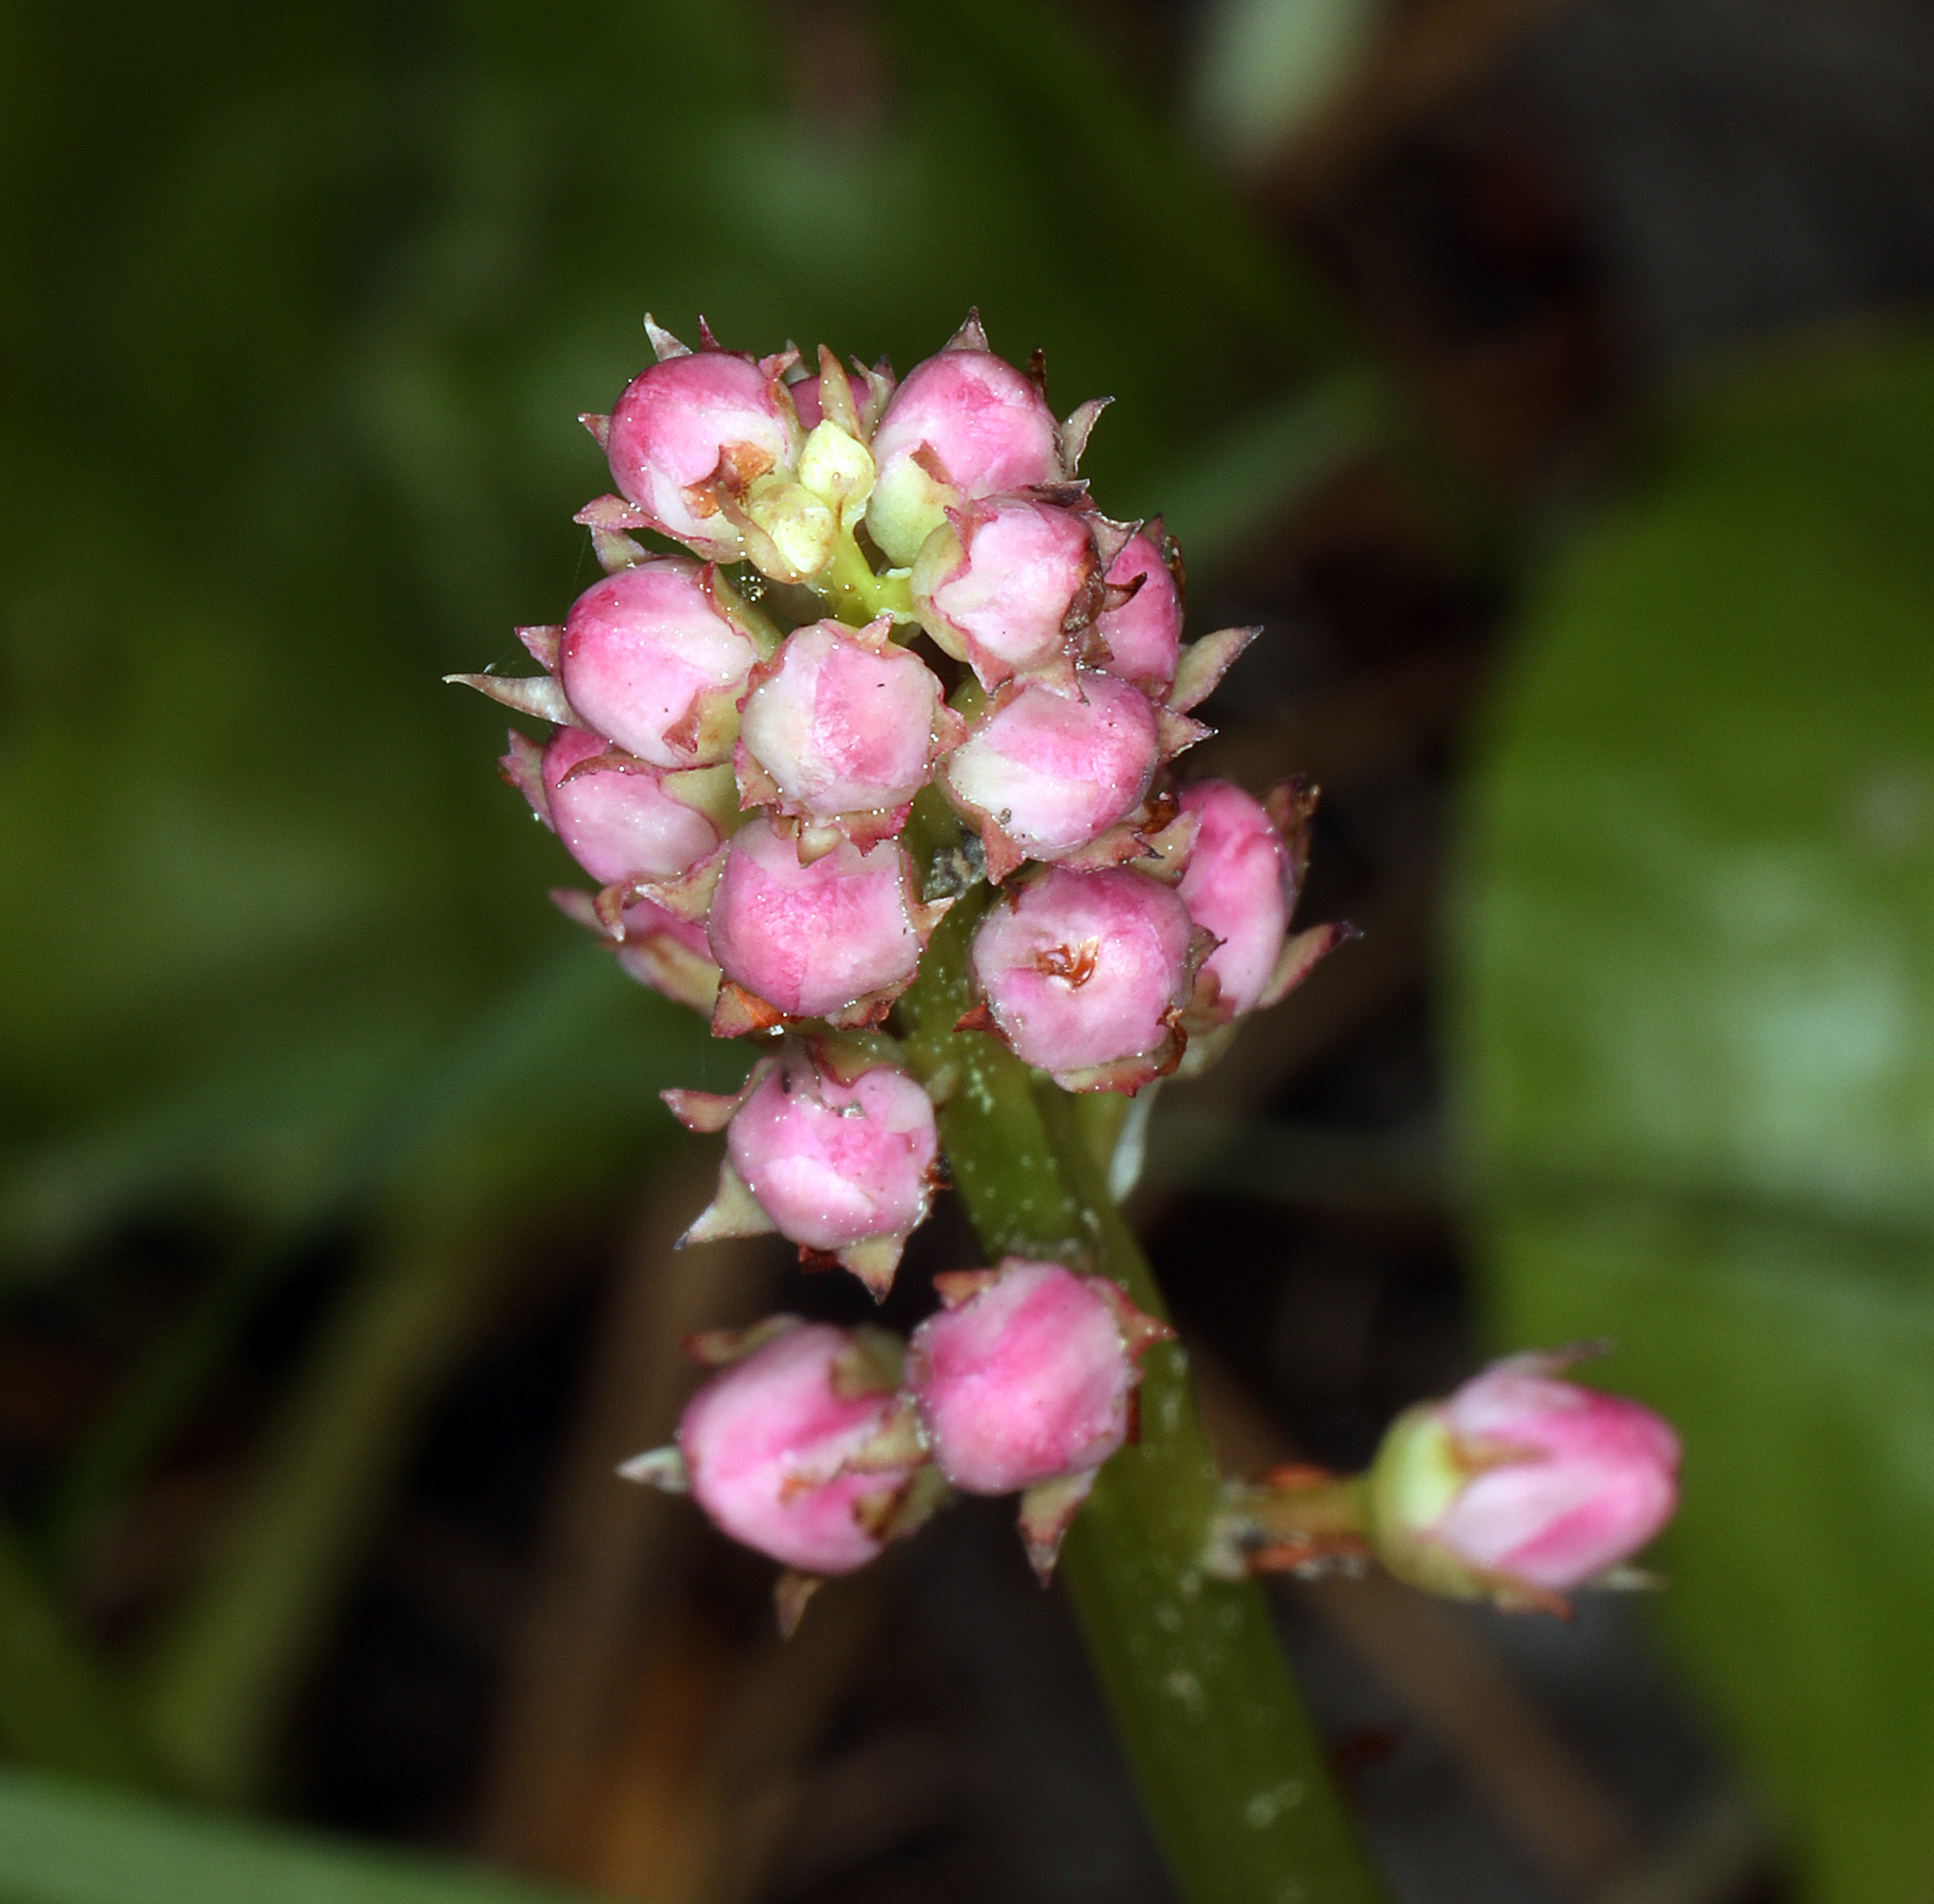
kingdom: Plantae
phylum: Tracheophyta
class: Magnoliopsida
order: Ericales
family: Ericaceae
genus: Pyrola
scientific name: Pyrola asarifolia
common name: Bog wintergreen
